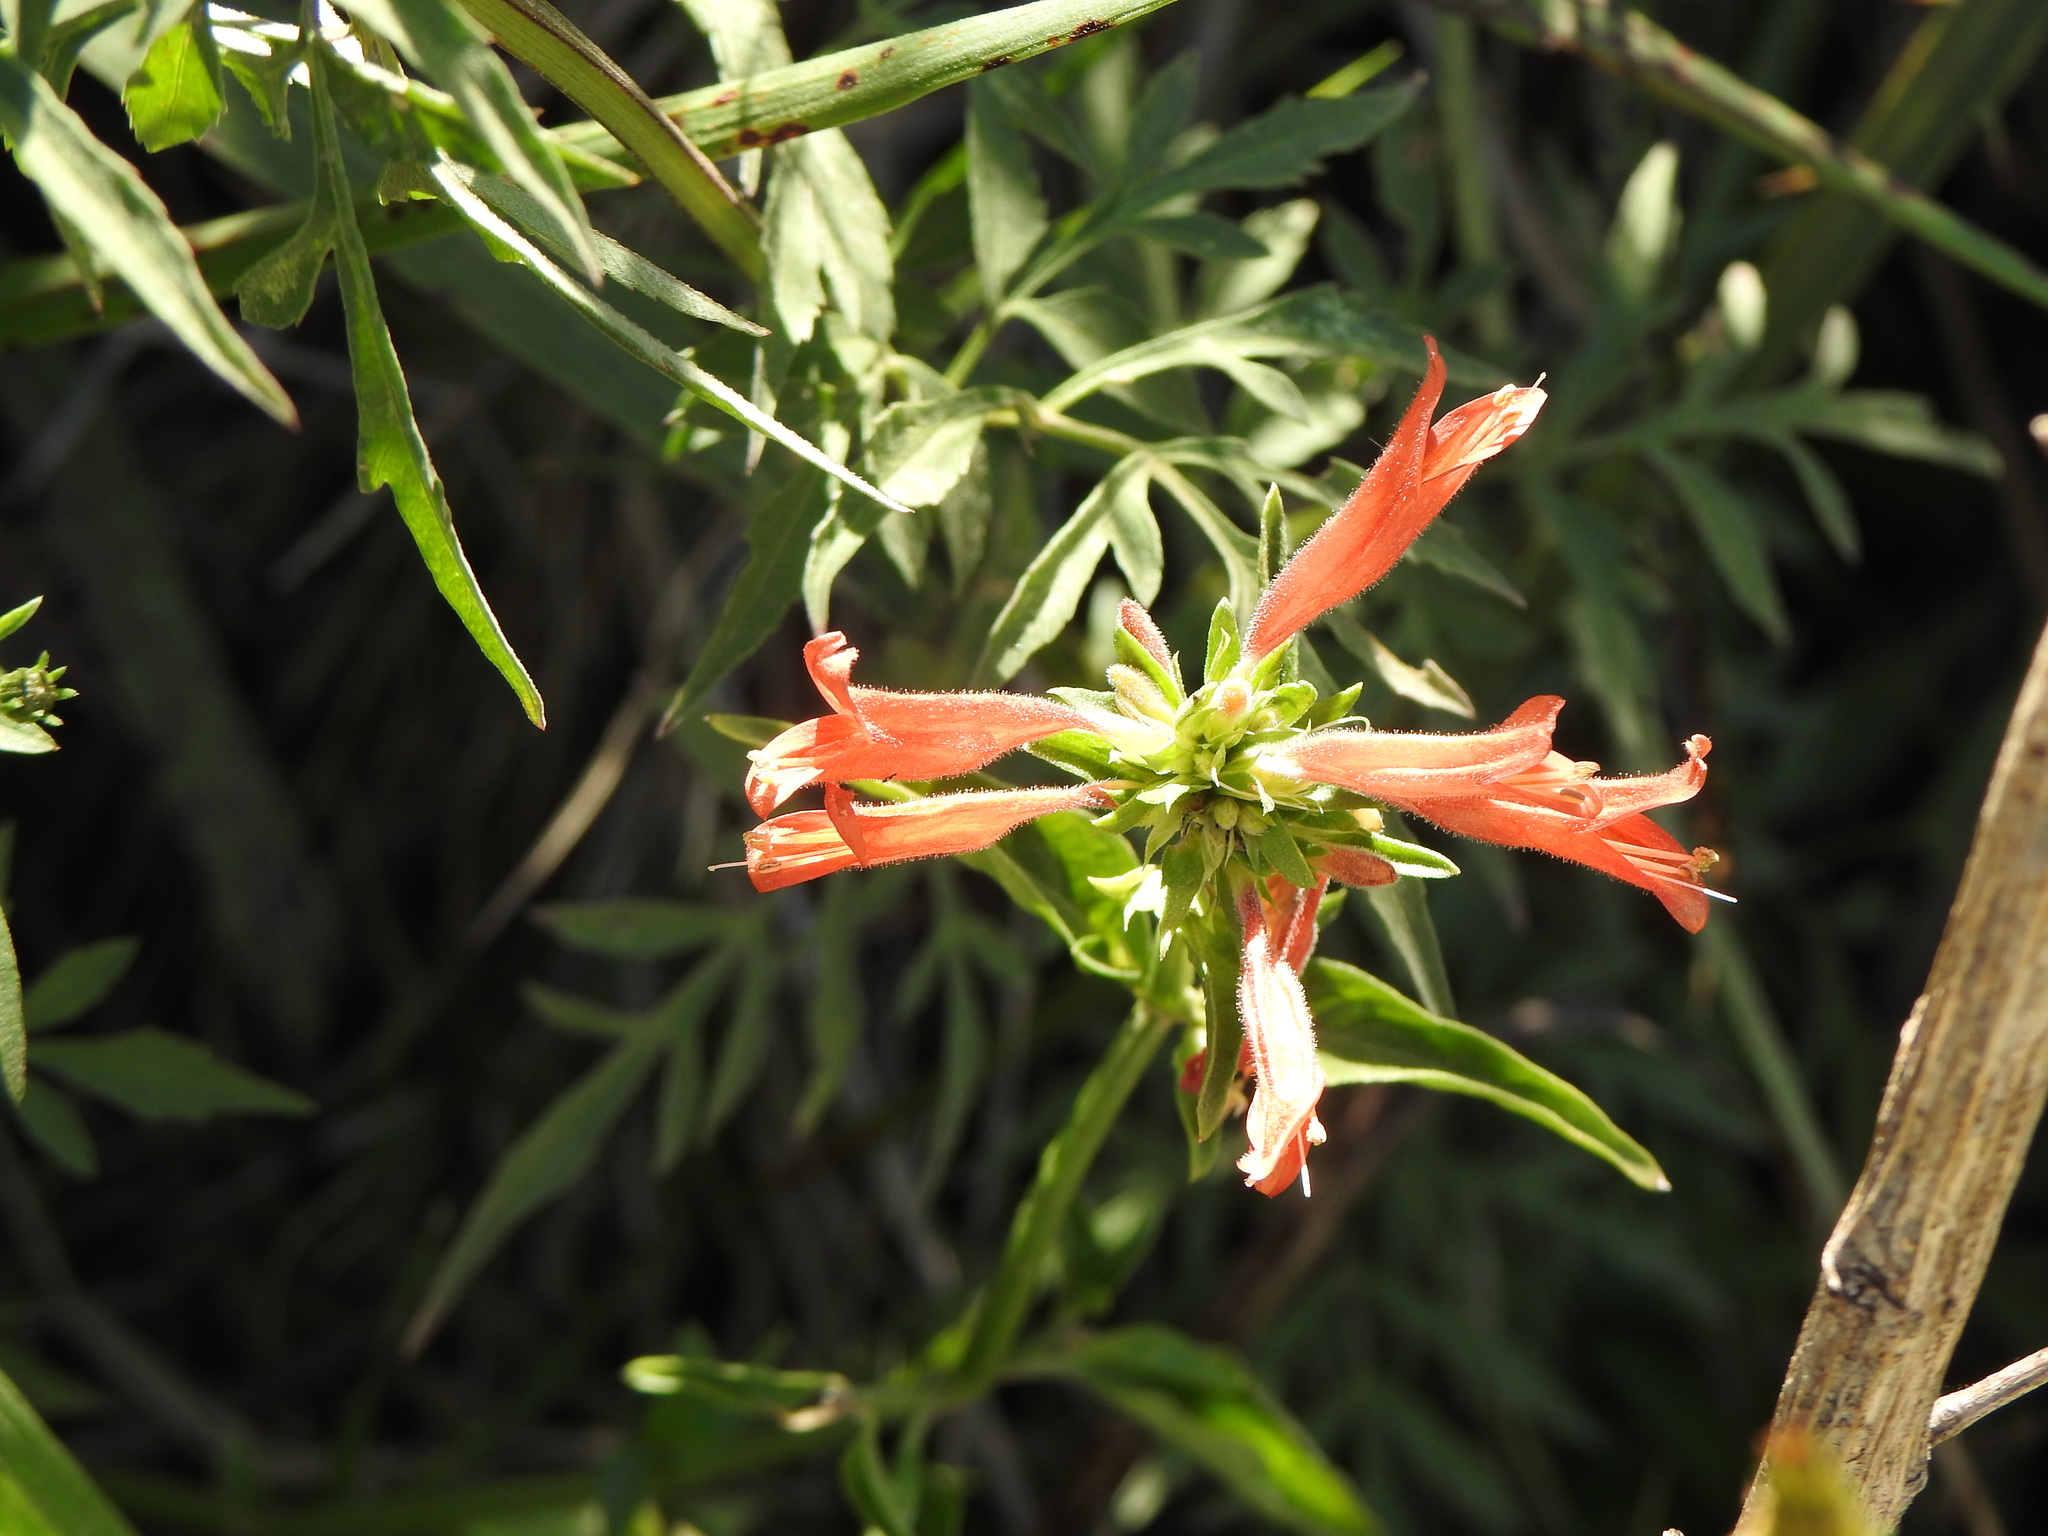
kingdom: Plantae
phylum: Tracheophyta
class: Magnoliopsida
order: Lamiales
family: Acanthaceae
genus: Dicliptera
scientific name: Dicliptera squarrosa
